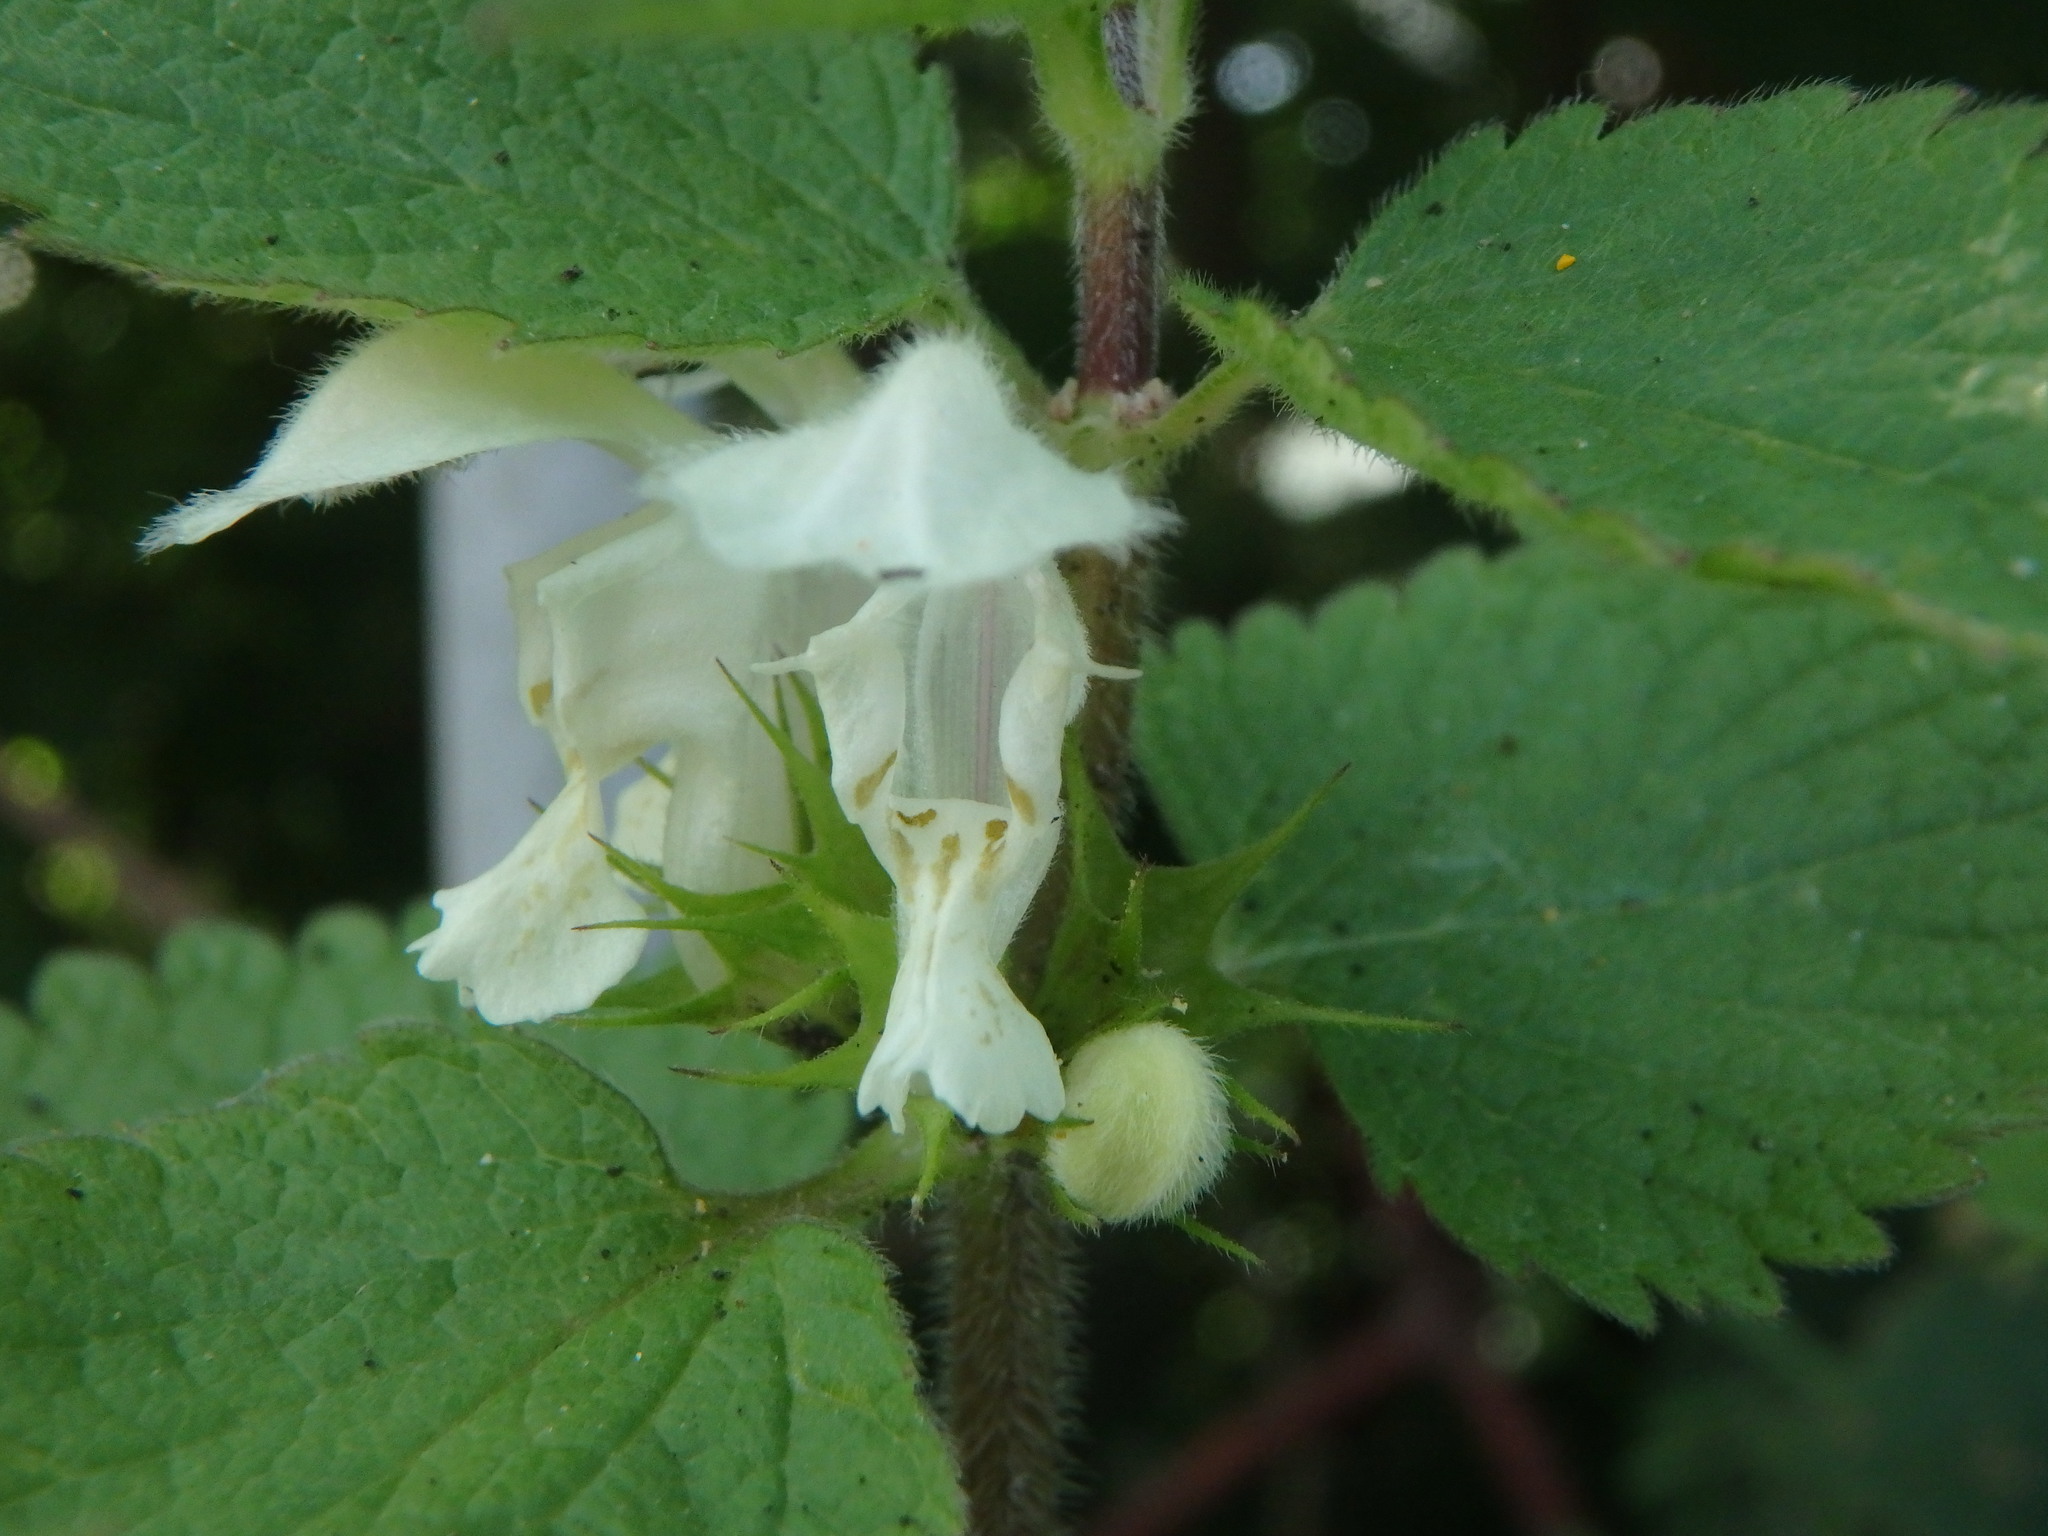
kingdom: Plantae
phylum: Tracheophyta
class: Magnoliopsida
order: Lamiales
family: Lamiaceae
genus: Lamium
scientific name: Lamium album
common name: White dead-nettle
